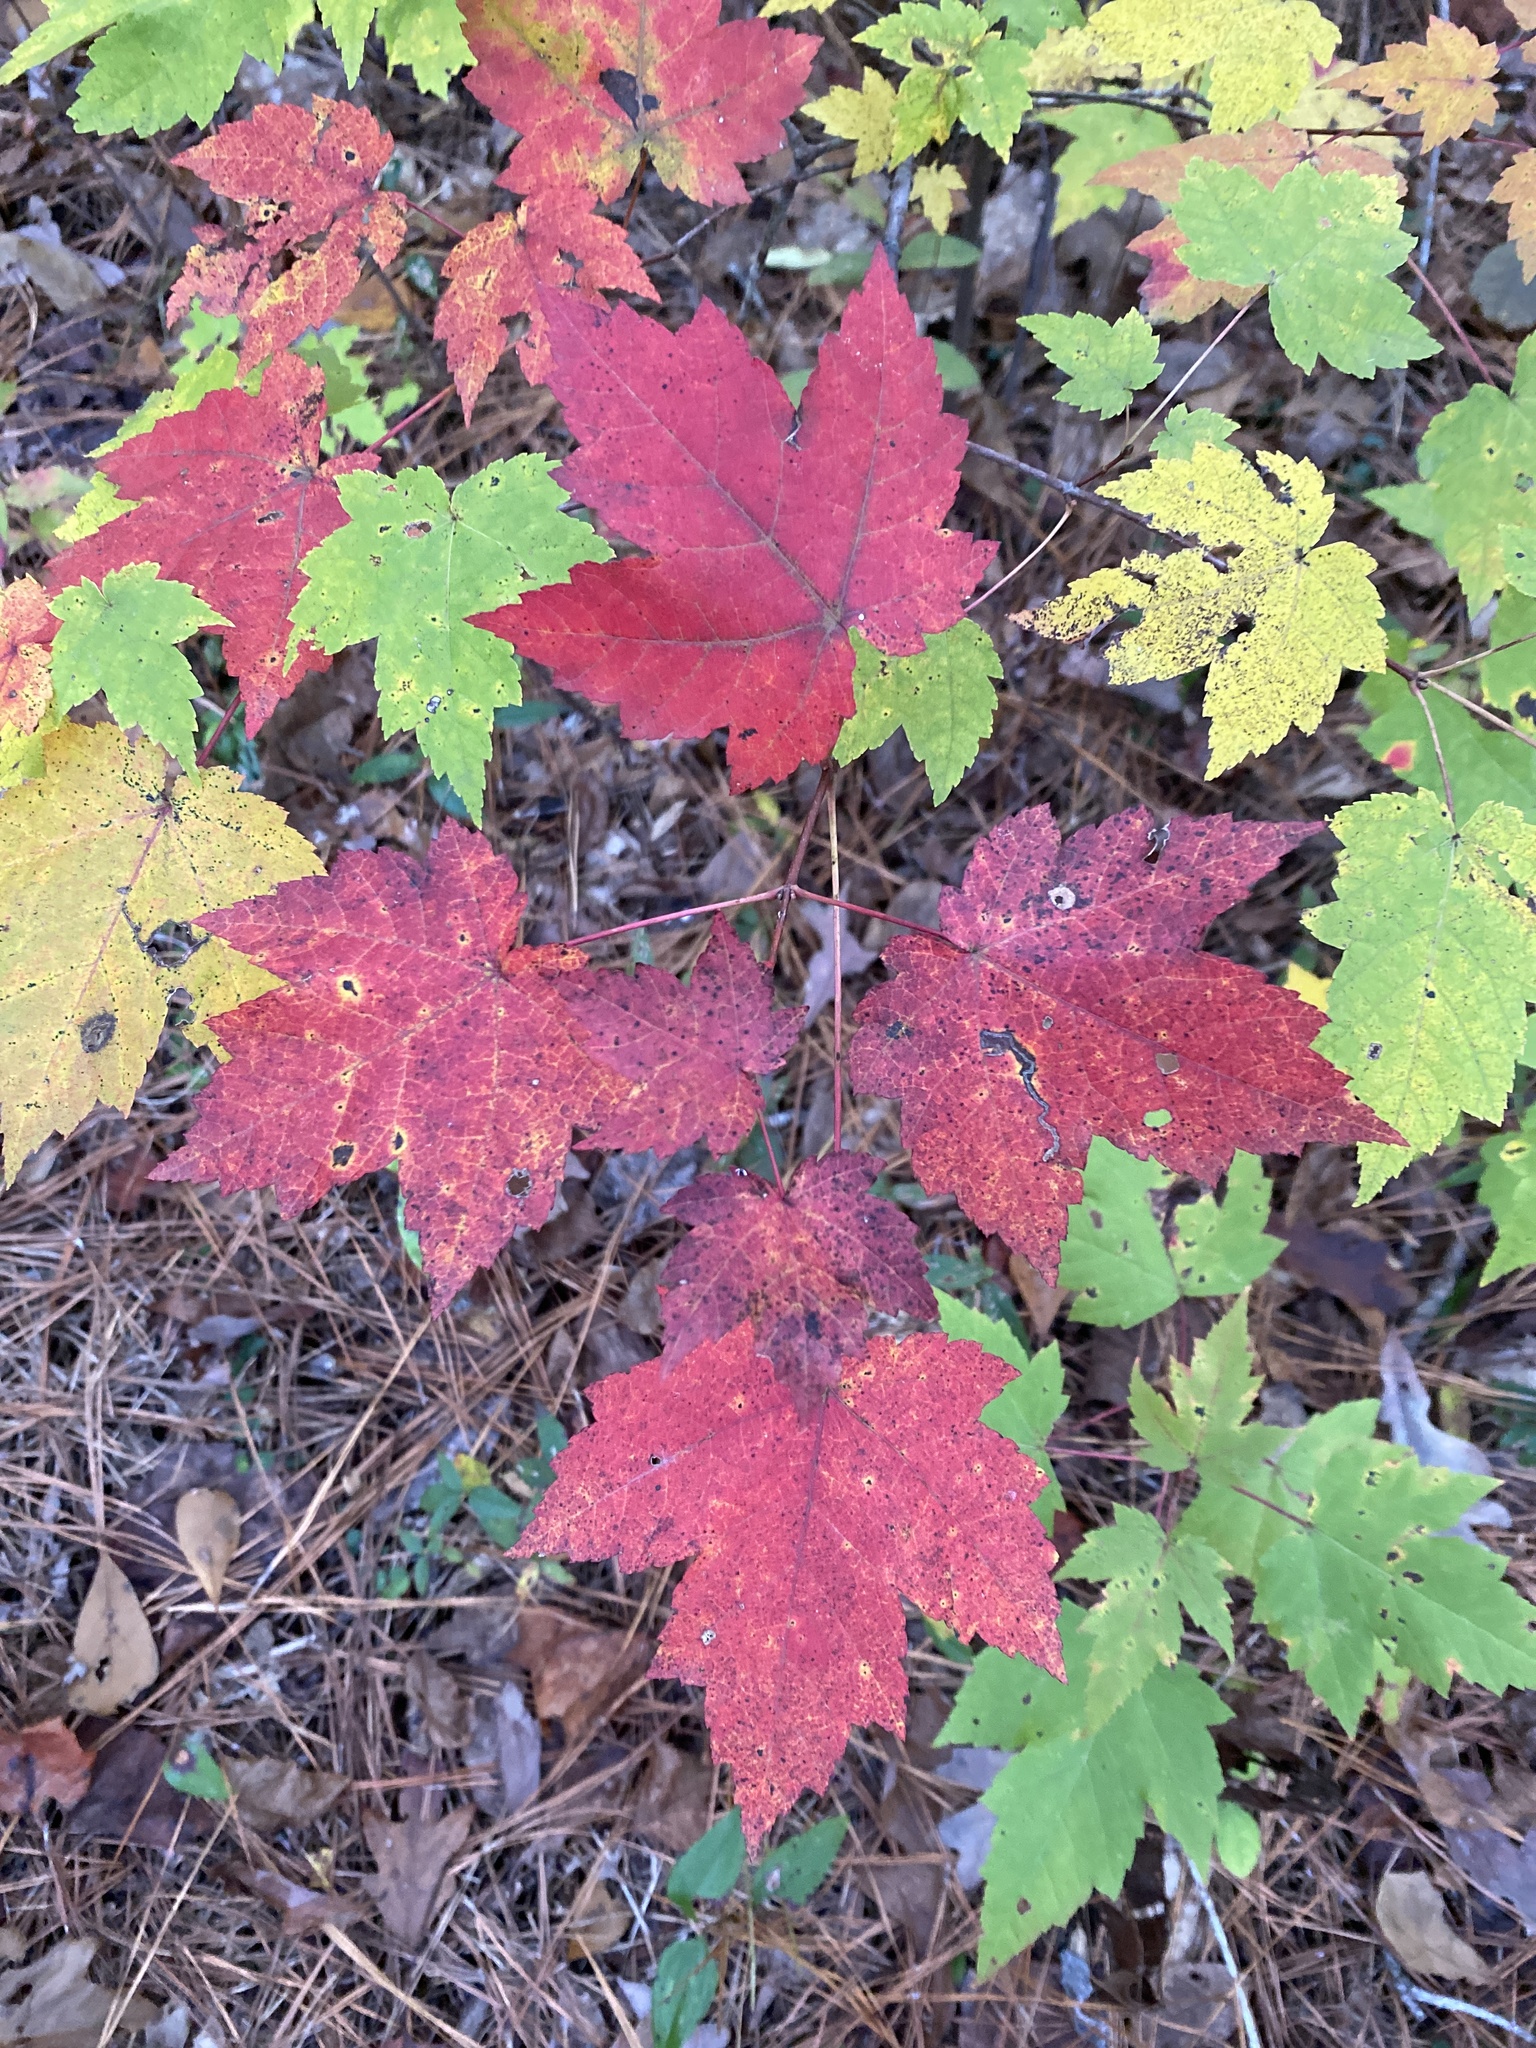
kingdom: Plantae
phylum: Tracheophyta
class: Magnoliopsida
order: Sapindales
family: Sapindaceae
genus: Acer
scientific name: Acer rubrum
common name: Red maple
